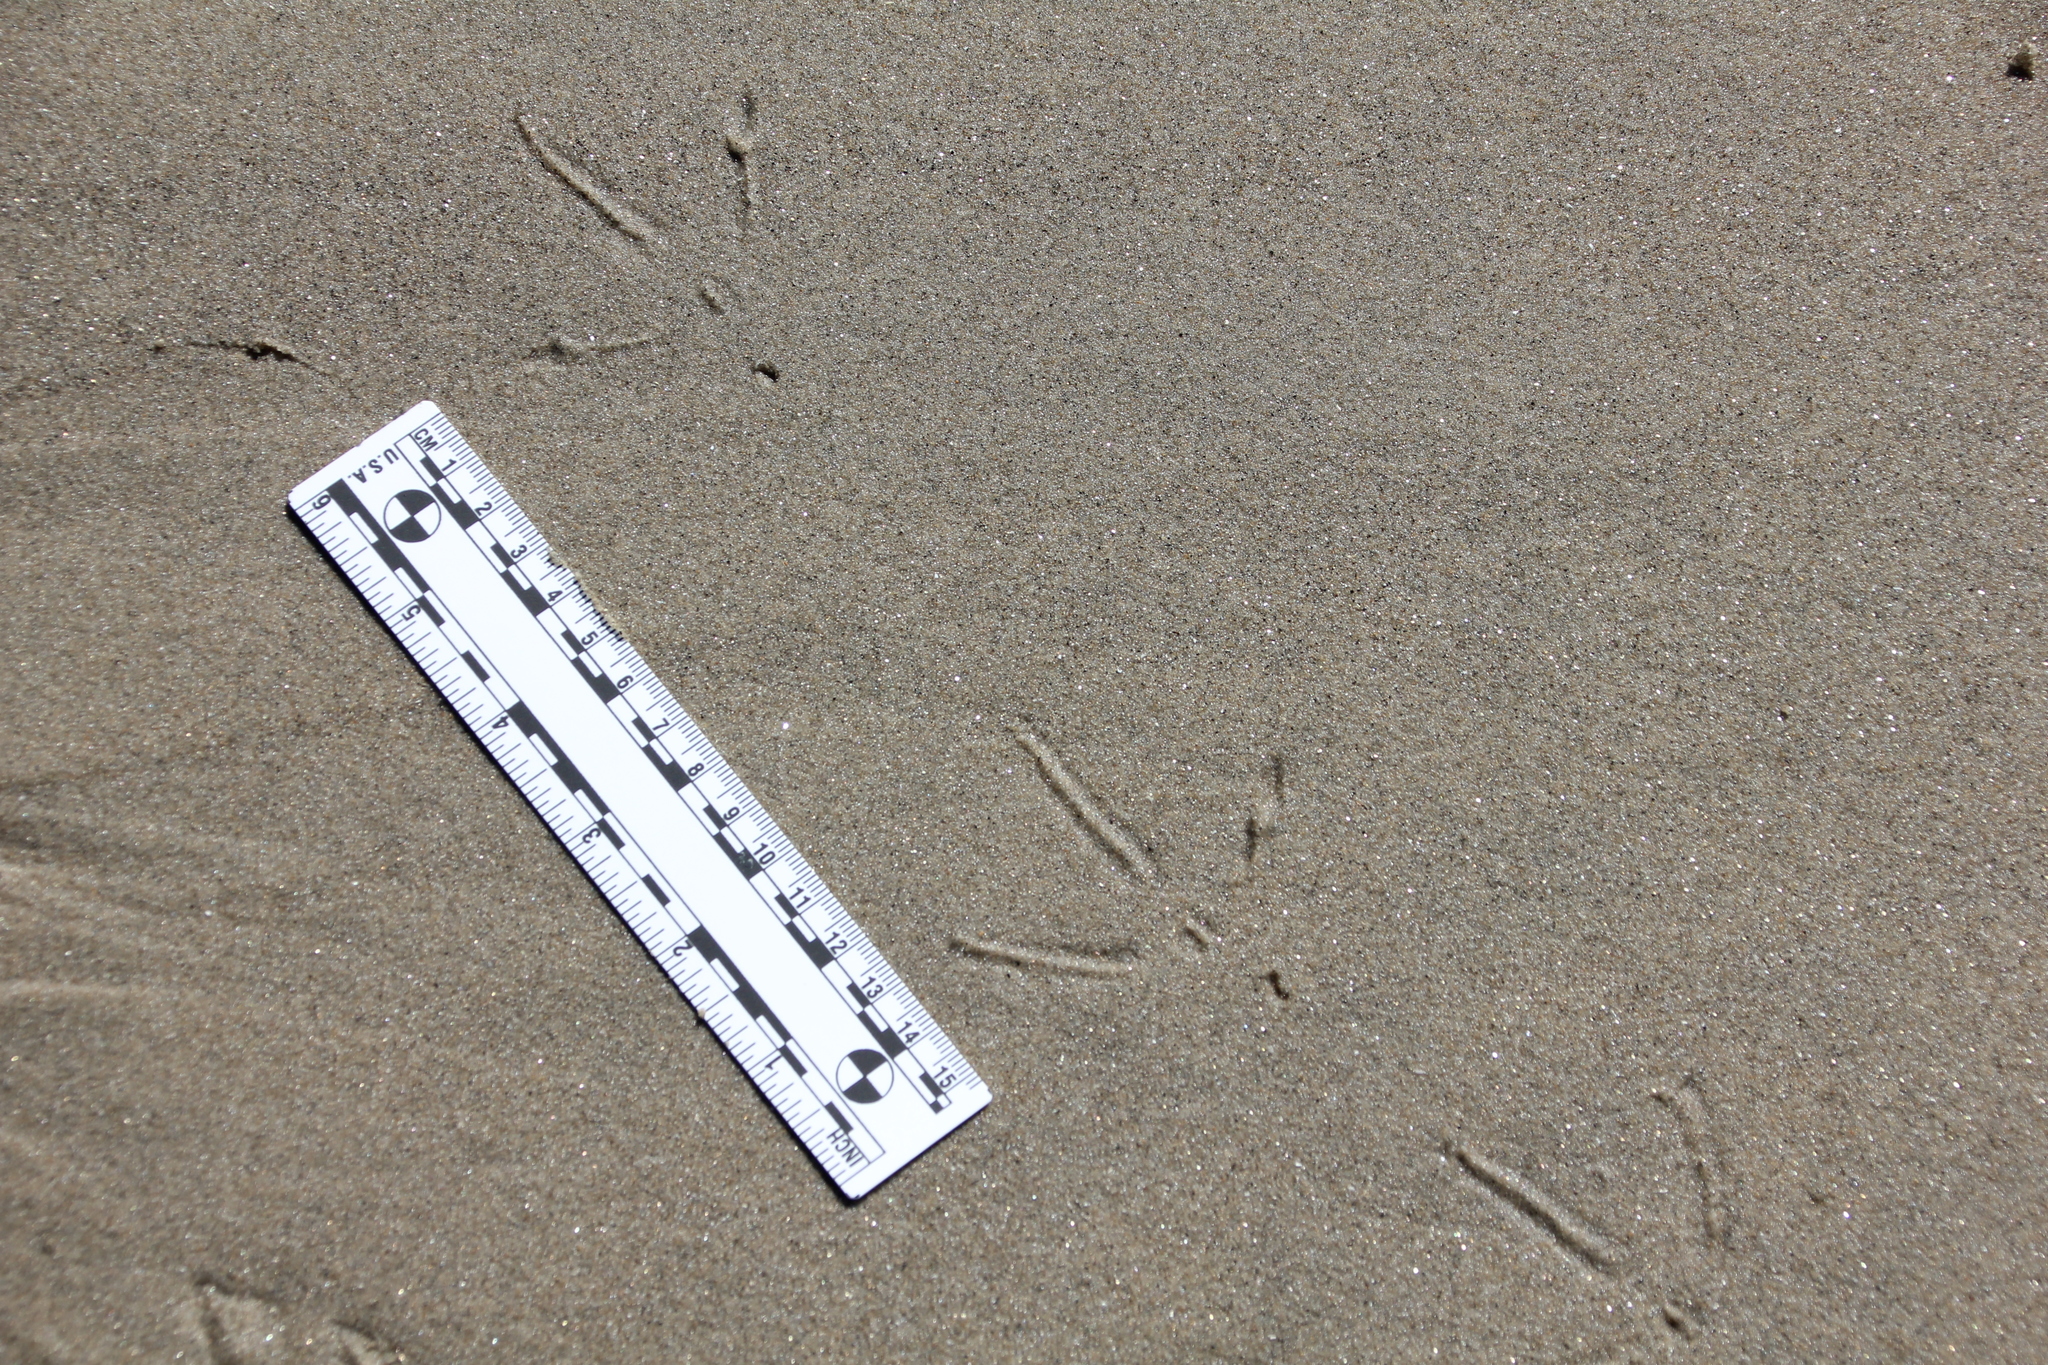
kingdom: Animalia
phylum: Chordata
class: Aves
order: Charadriiformes
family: Scolopacidae
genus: Numenius
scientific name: Numenius americanus
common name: Long-billed curlew
